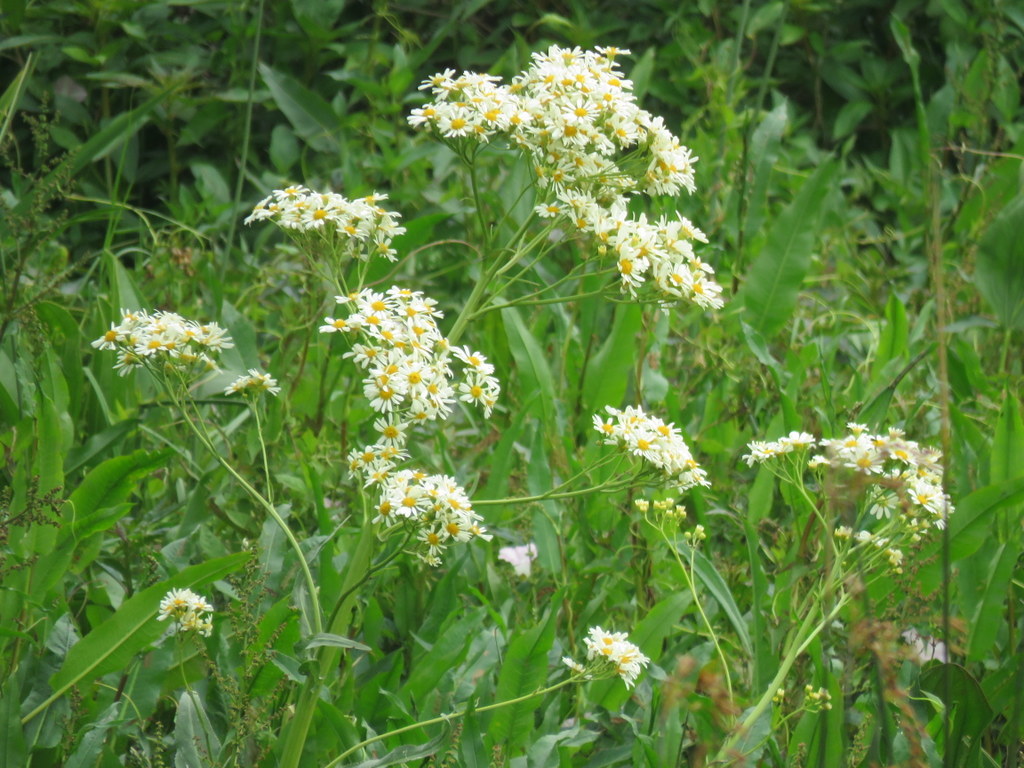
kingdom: Plantae
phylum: Tracheophyta
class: Magnoliopsida
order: Asterales
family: Asteraceae
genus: Senecio
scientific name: Senecio bonariensis
